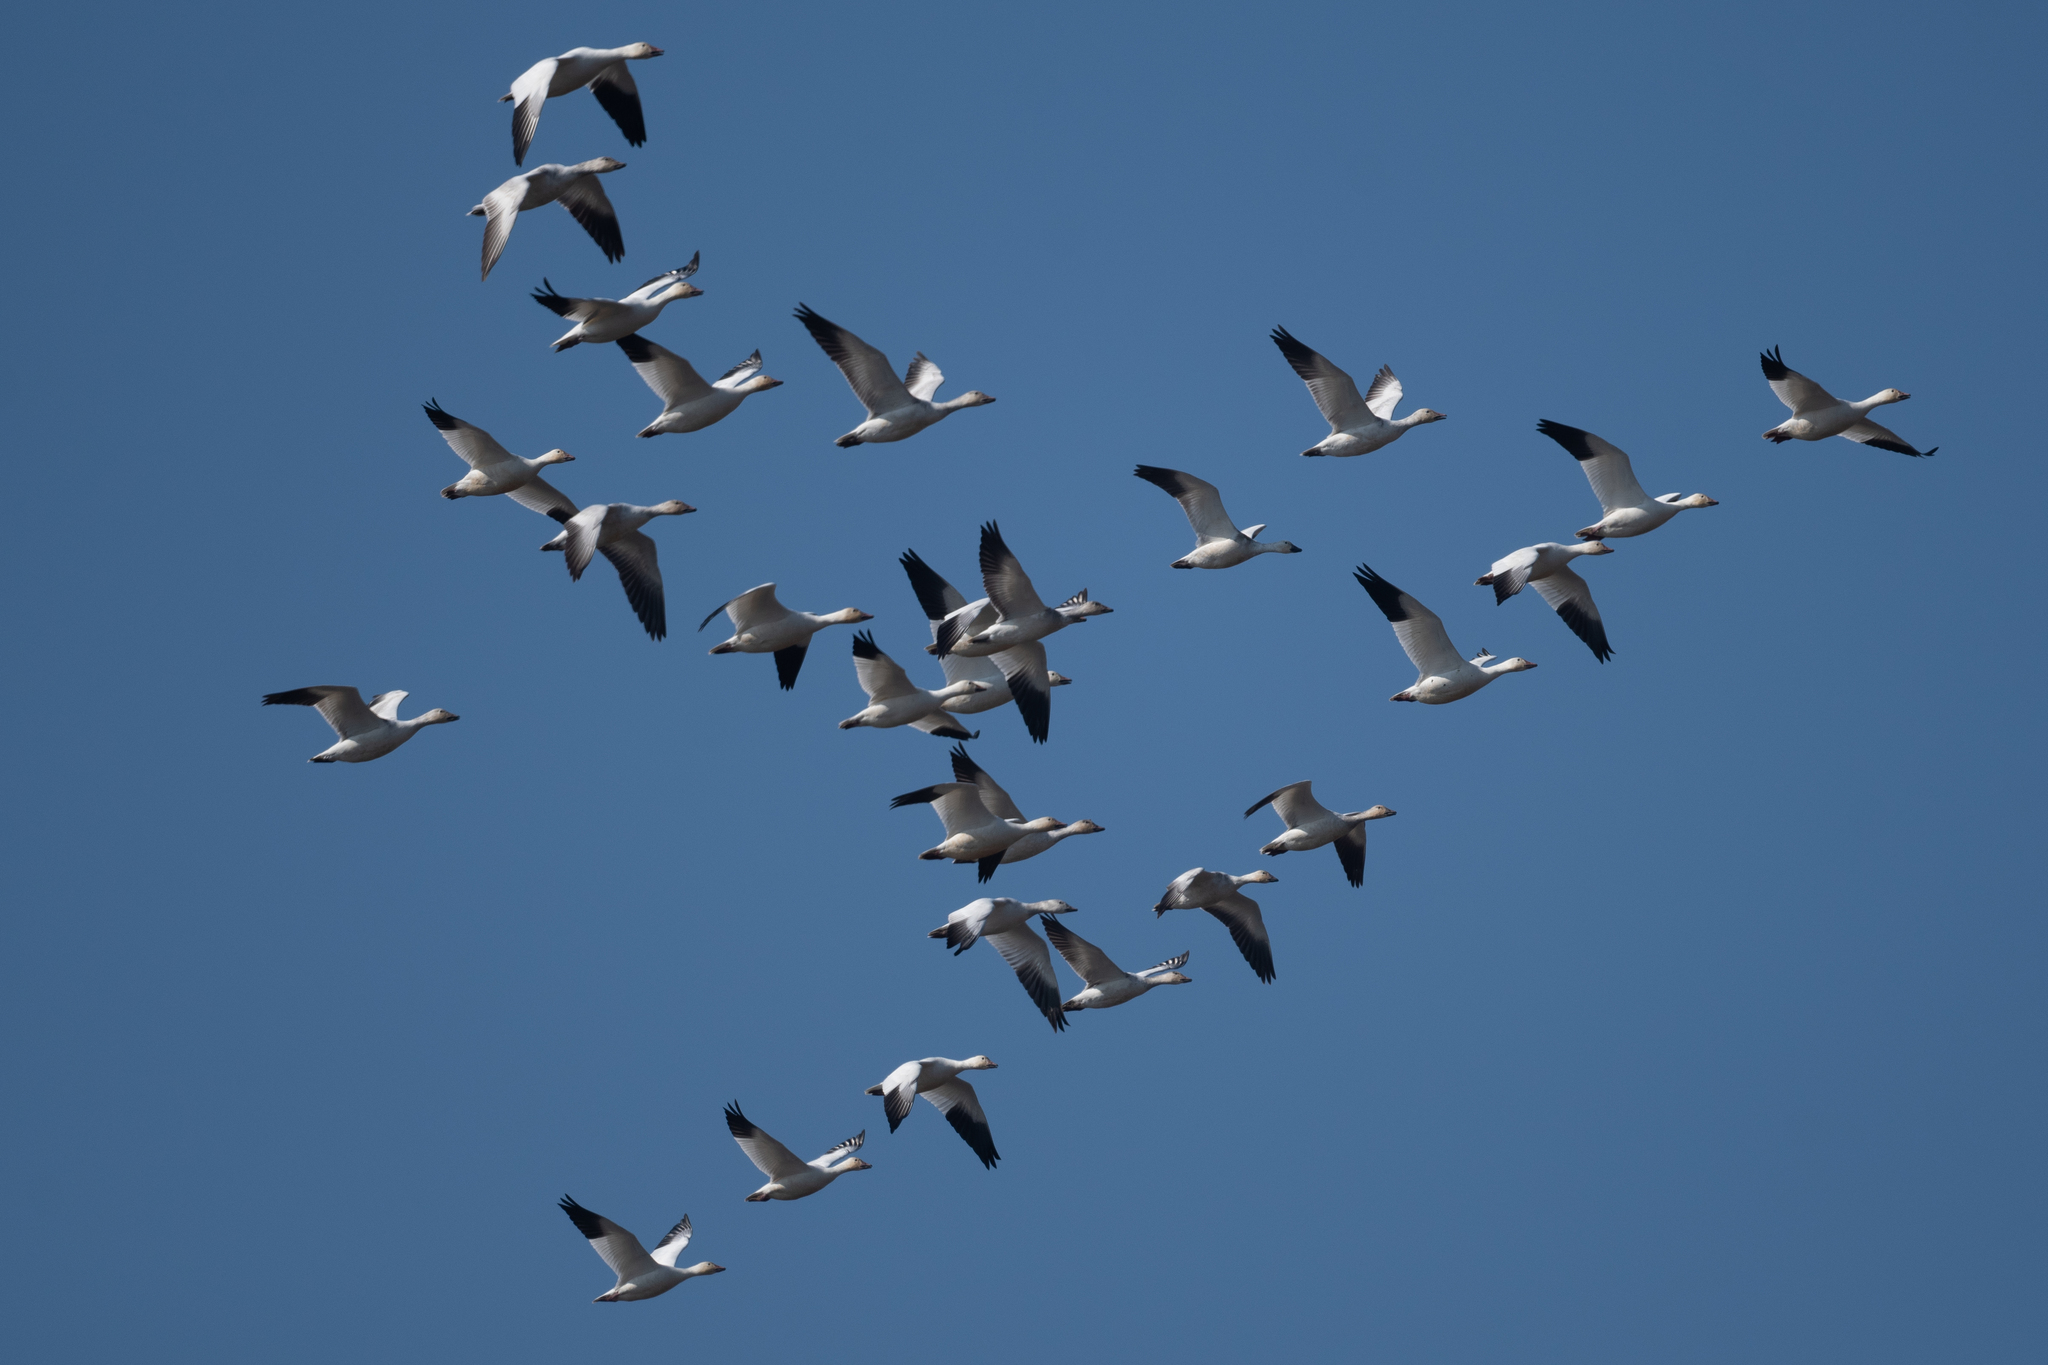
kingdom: Animalia
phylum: Chordata
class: Aves
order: Anseriformes
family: Anatidae
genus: Anser
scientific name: Anser caerulescens
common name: Snow goose
